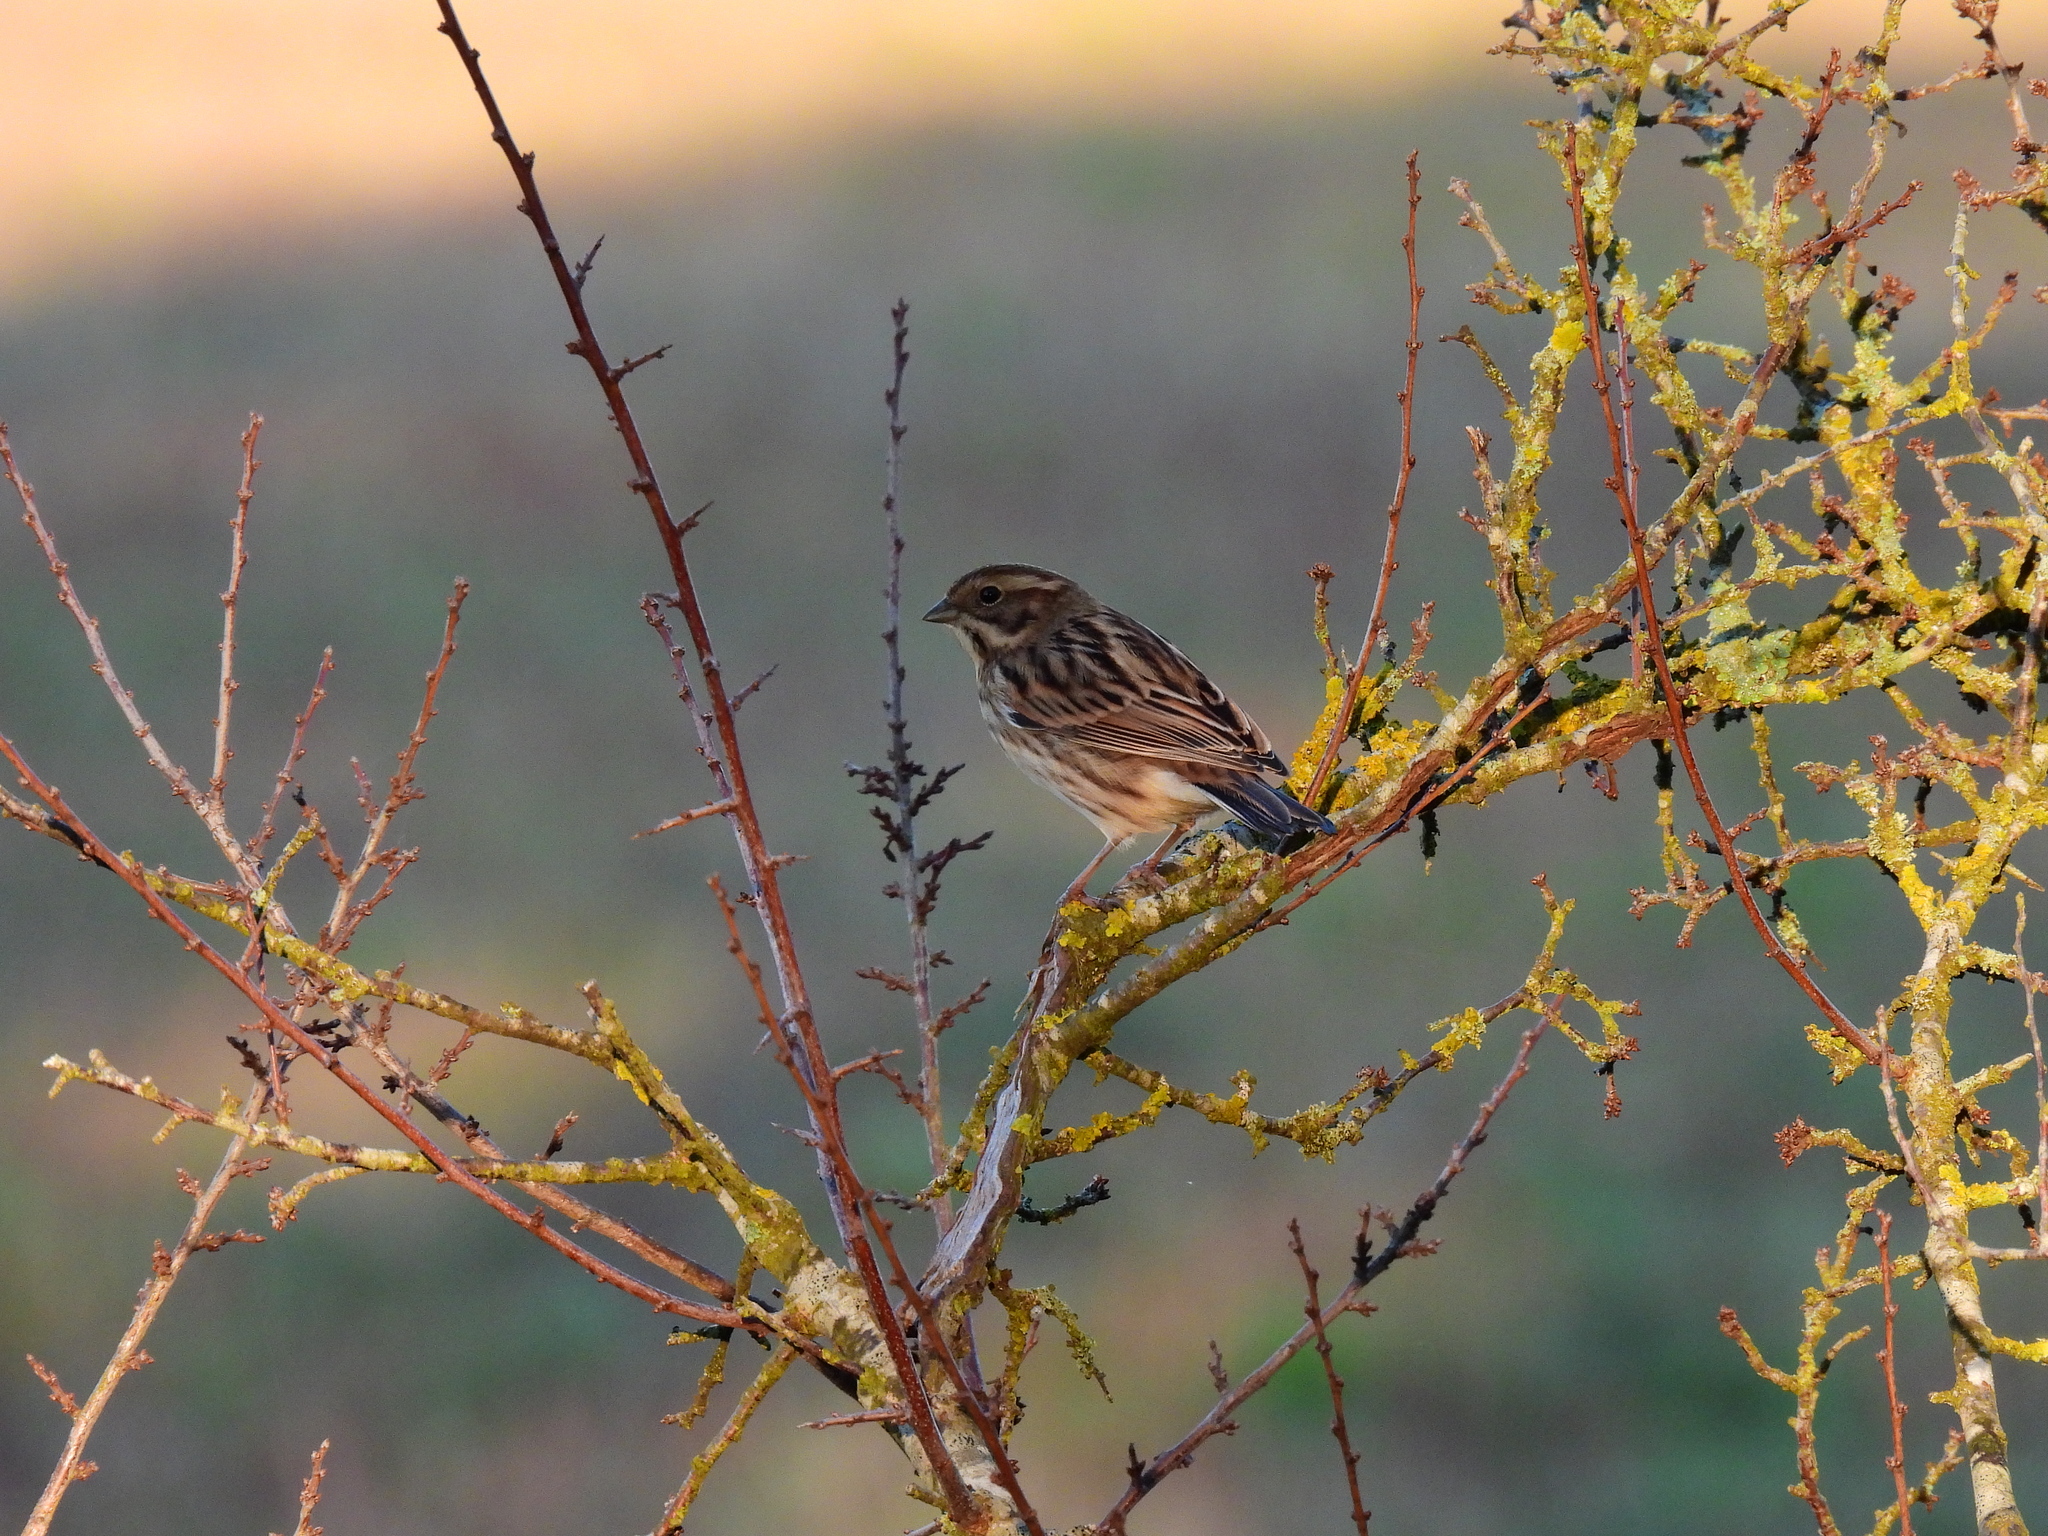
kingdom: Animalia
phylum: Chordata
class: Aves
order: Passeriformes
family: Emberizidae
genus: Emberiza
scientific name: Emberiza schoeniclus
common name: Reed bunting
